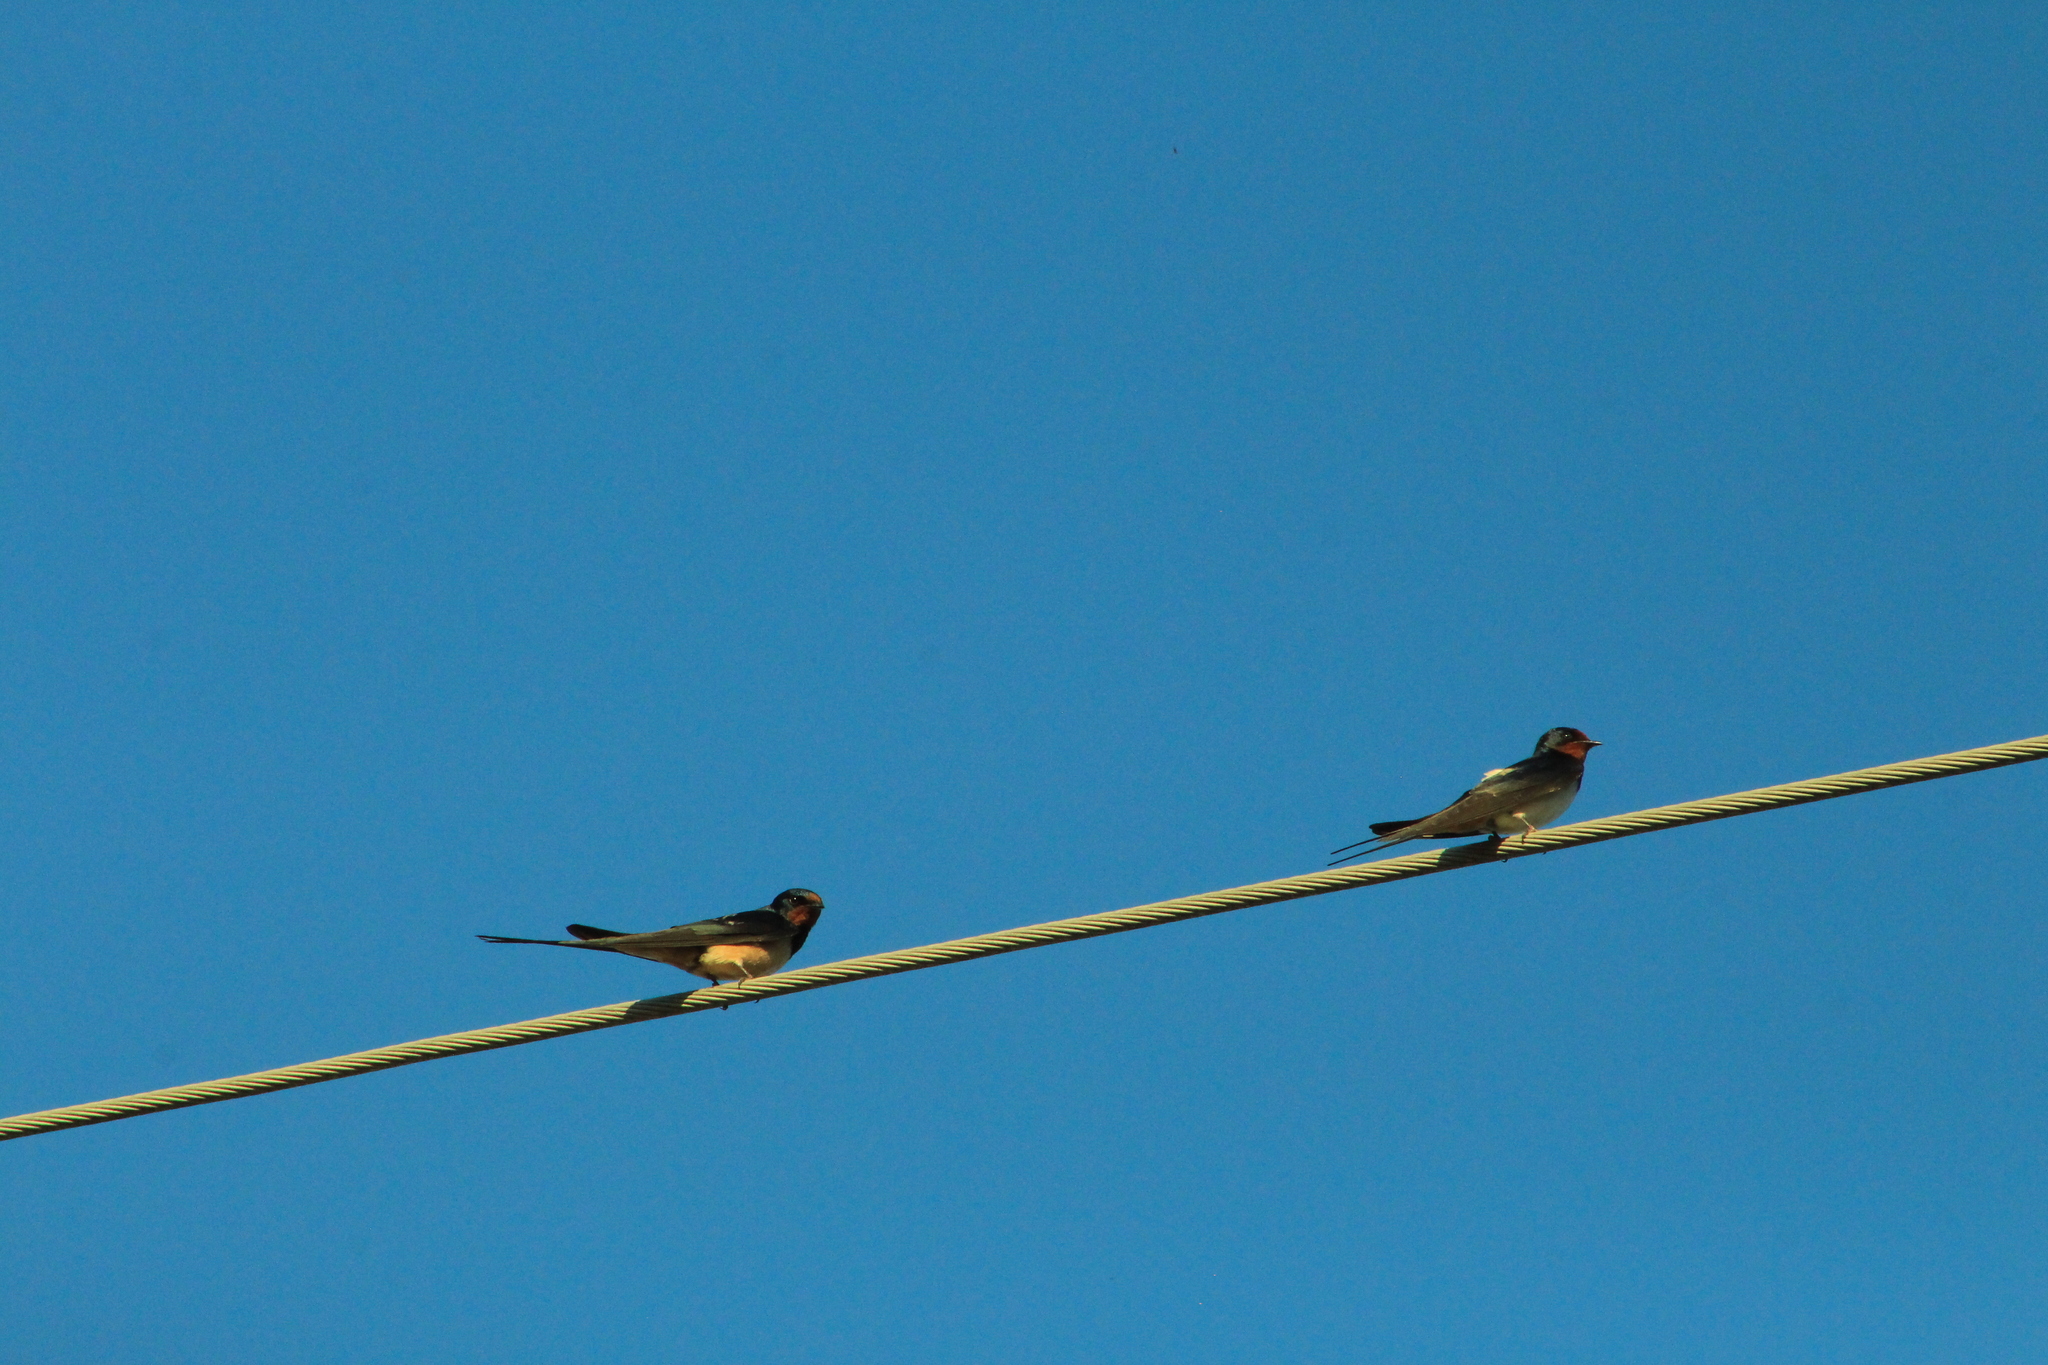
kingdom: Animalia
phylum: Chordata
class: Aves
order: Passeriformes
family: Hirundinidae
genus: Hirundo
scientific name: Hirundo rustica
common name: Barn swallow
